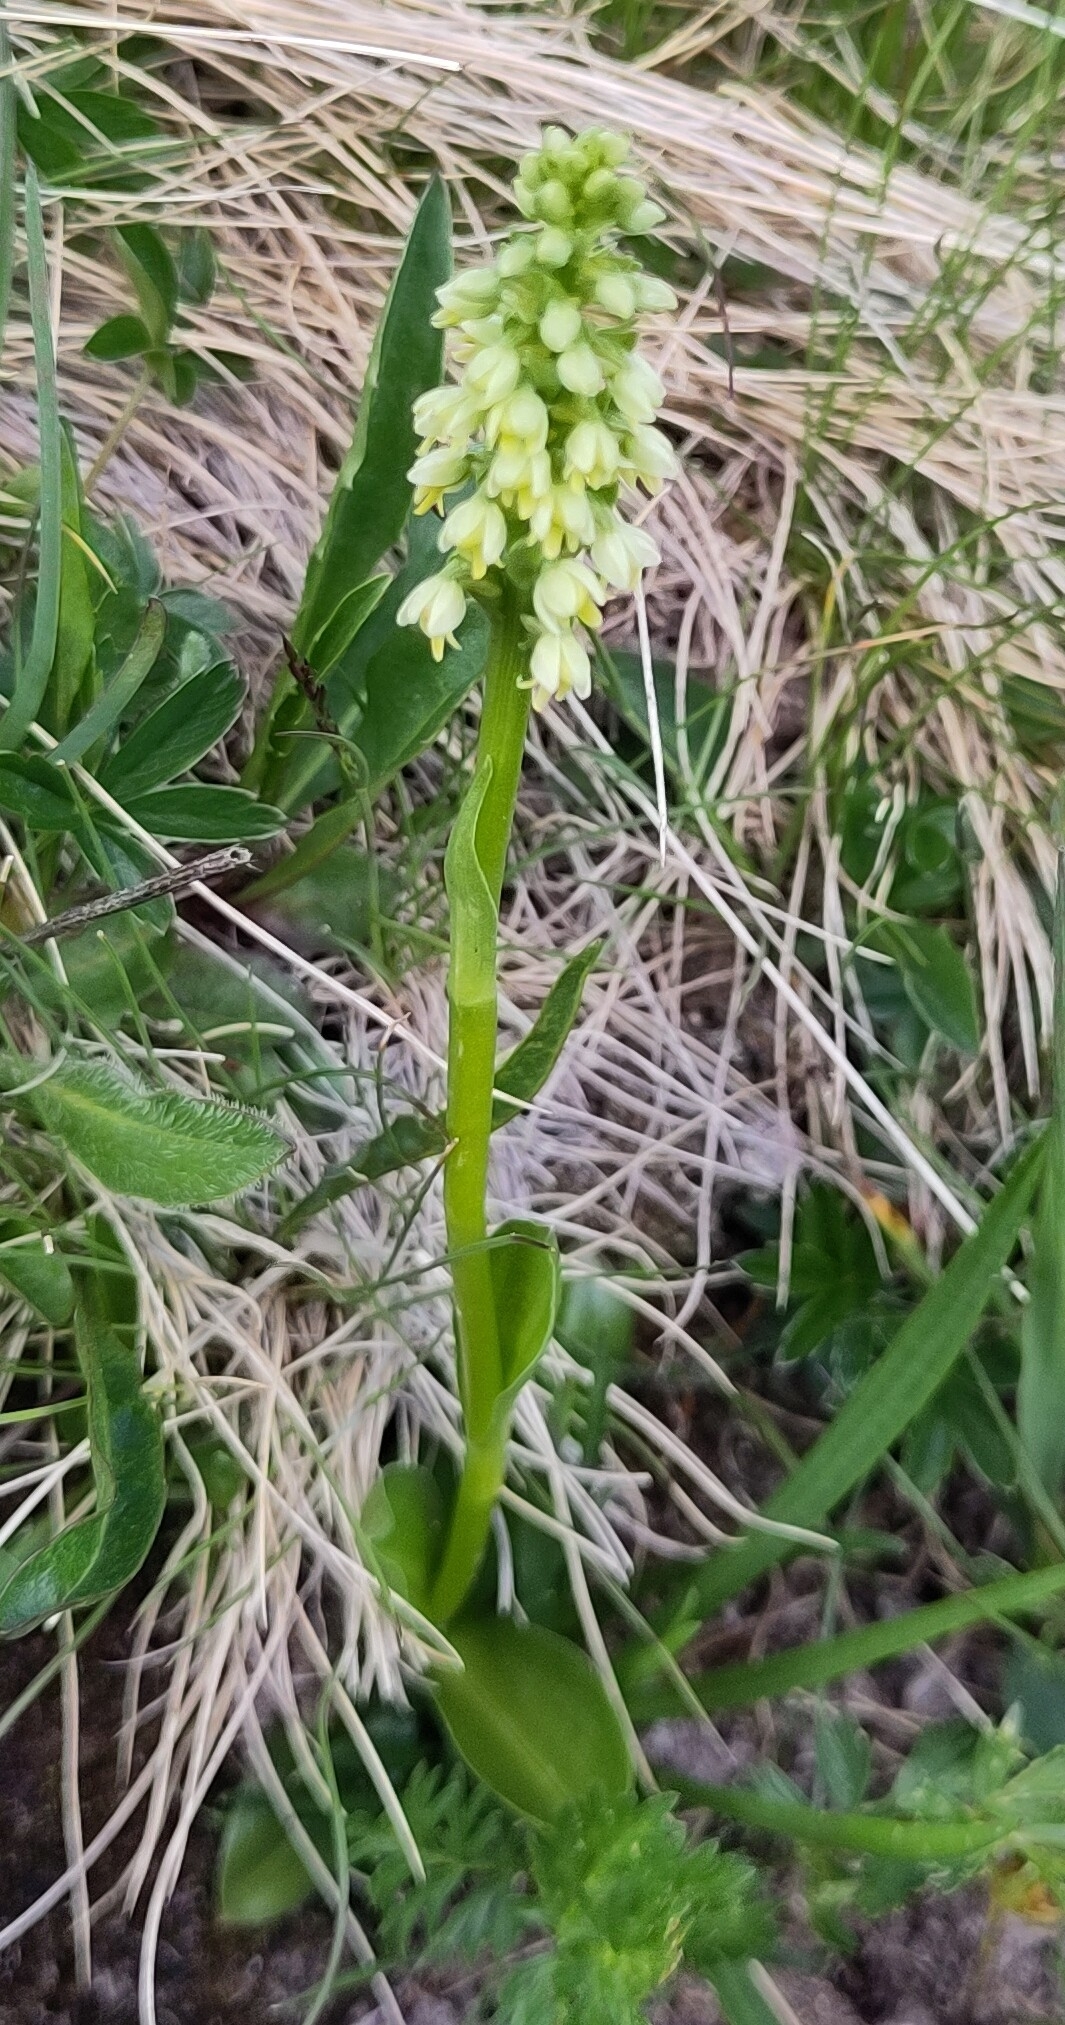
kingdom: Plantae
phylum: Tracheophyta
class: Liliopsida
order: Asparagales
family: Orchidaceae
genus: Pseudorchis
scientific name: Pseudorchis albida
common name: Small-white orchid
